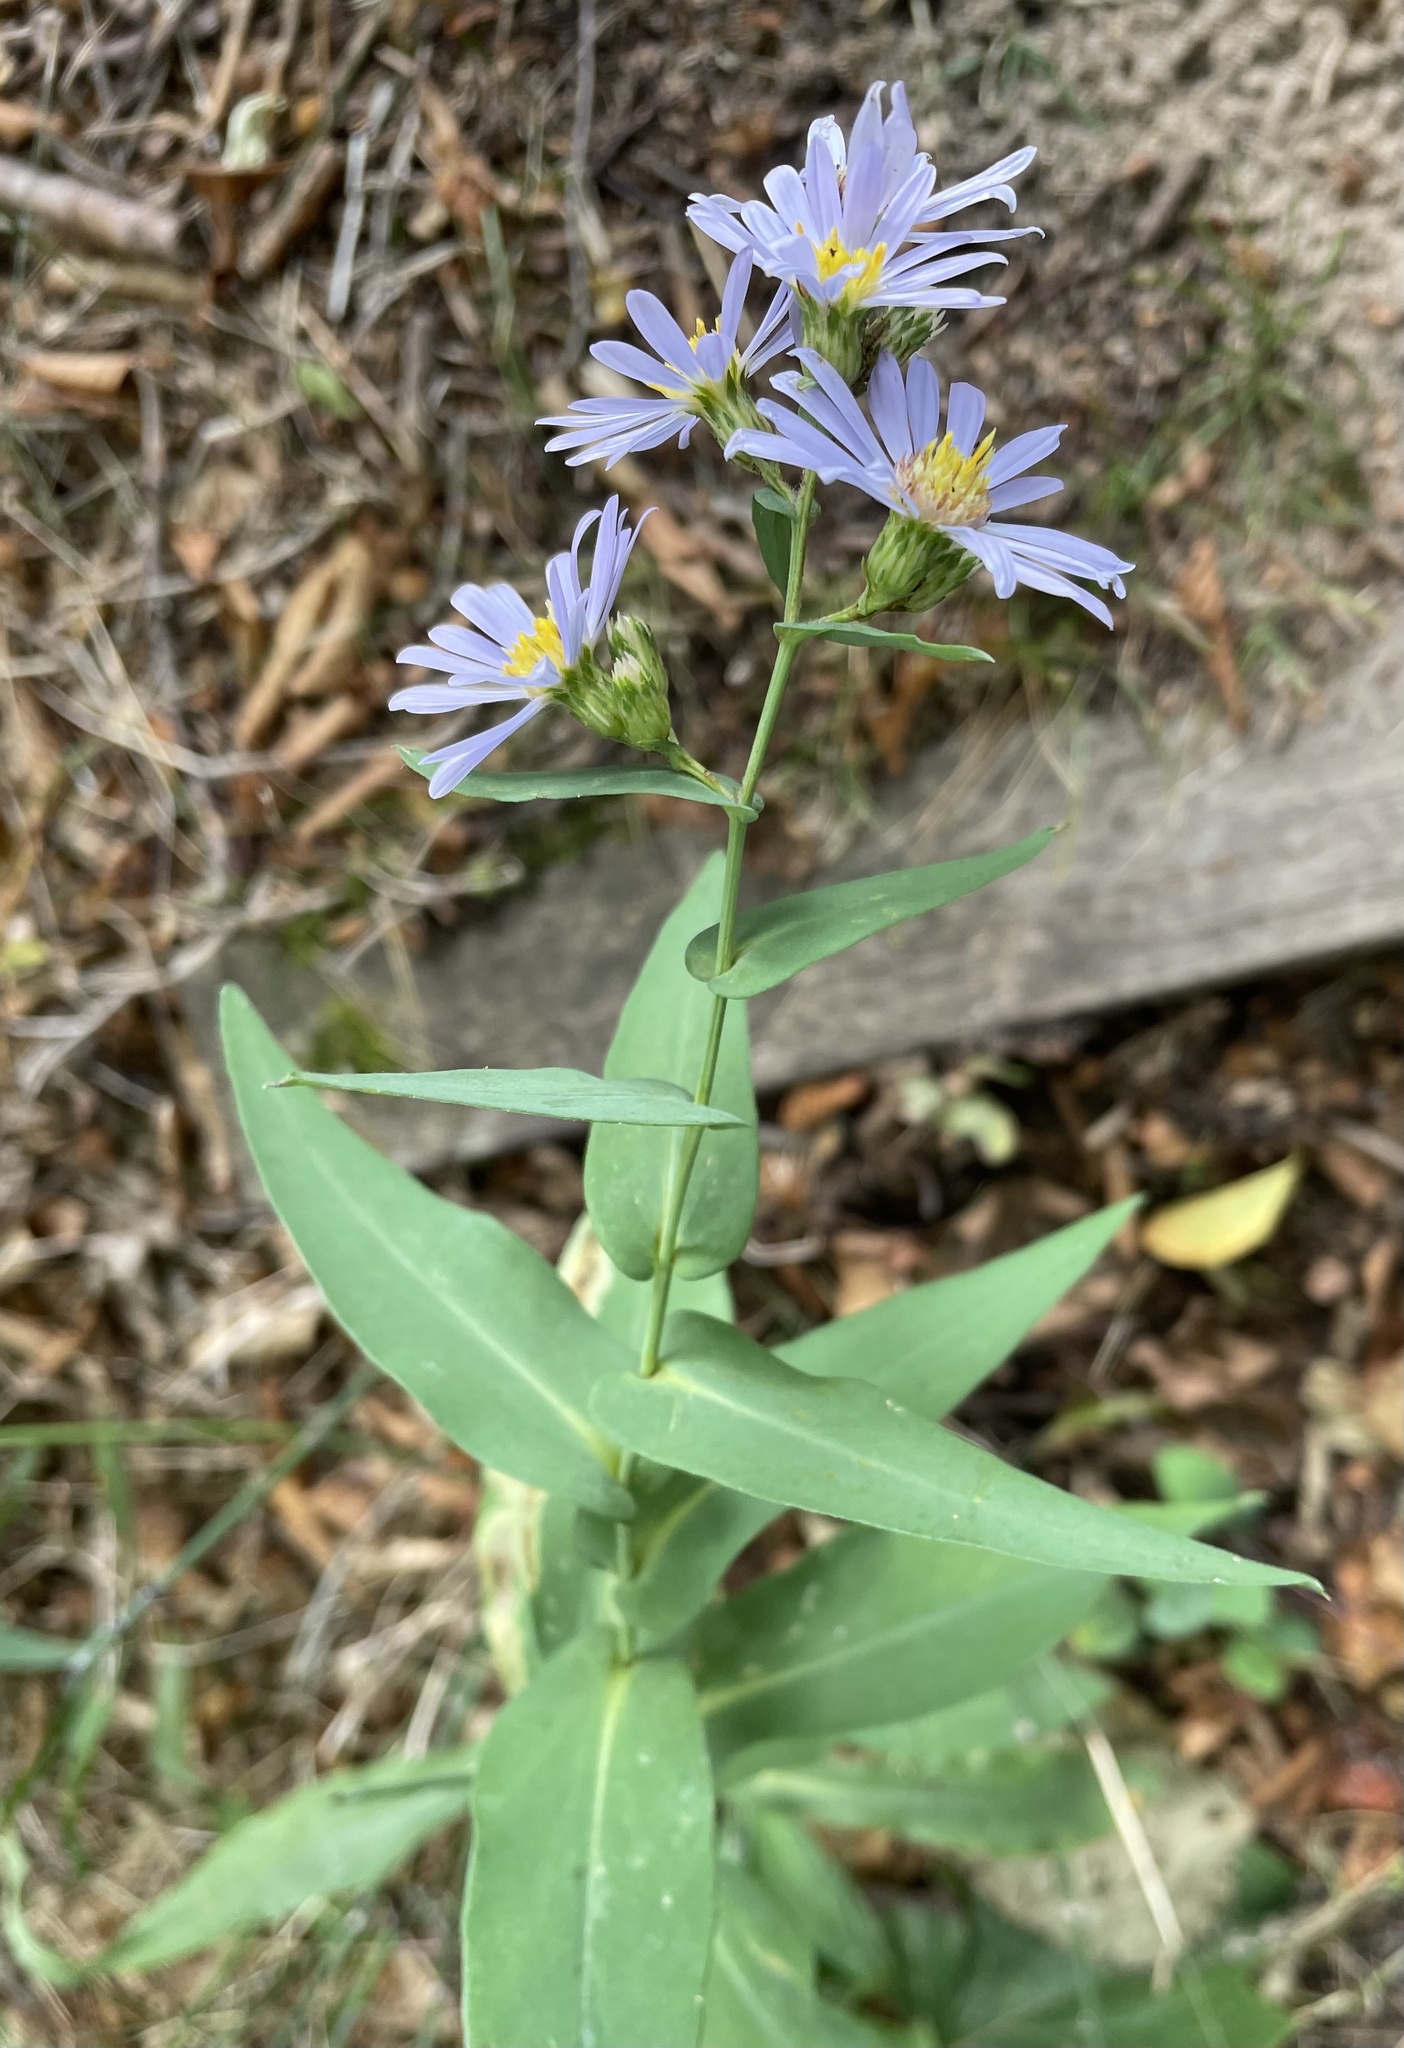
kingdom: Plantae
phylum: Tracheophyta
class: Magnoliopsida
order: Asterales
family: Asteraceae
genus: Symphyotrichum
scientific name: Symphyotrichum laeve
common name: Glaucous aster
